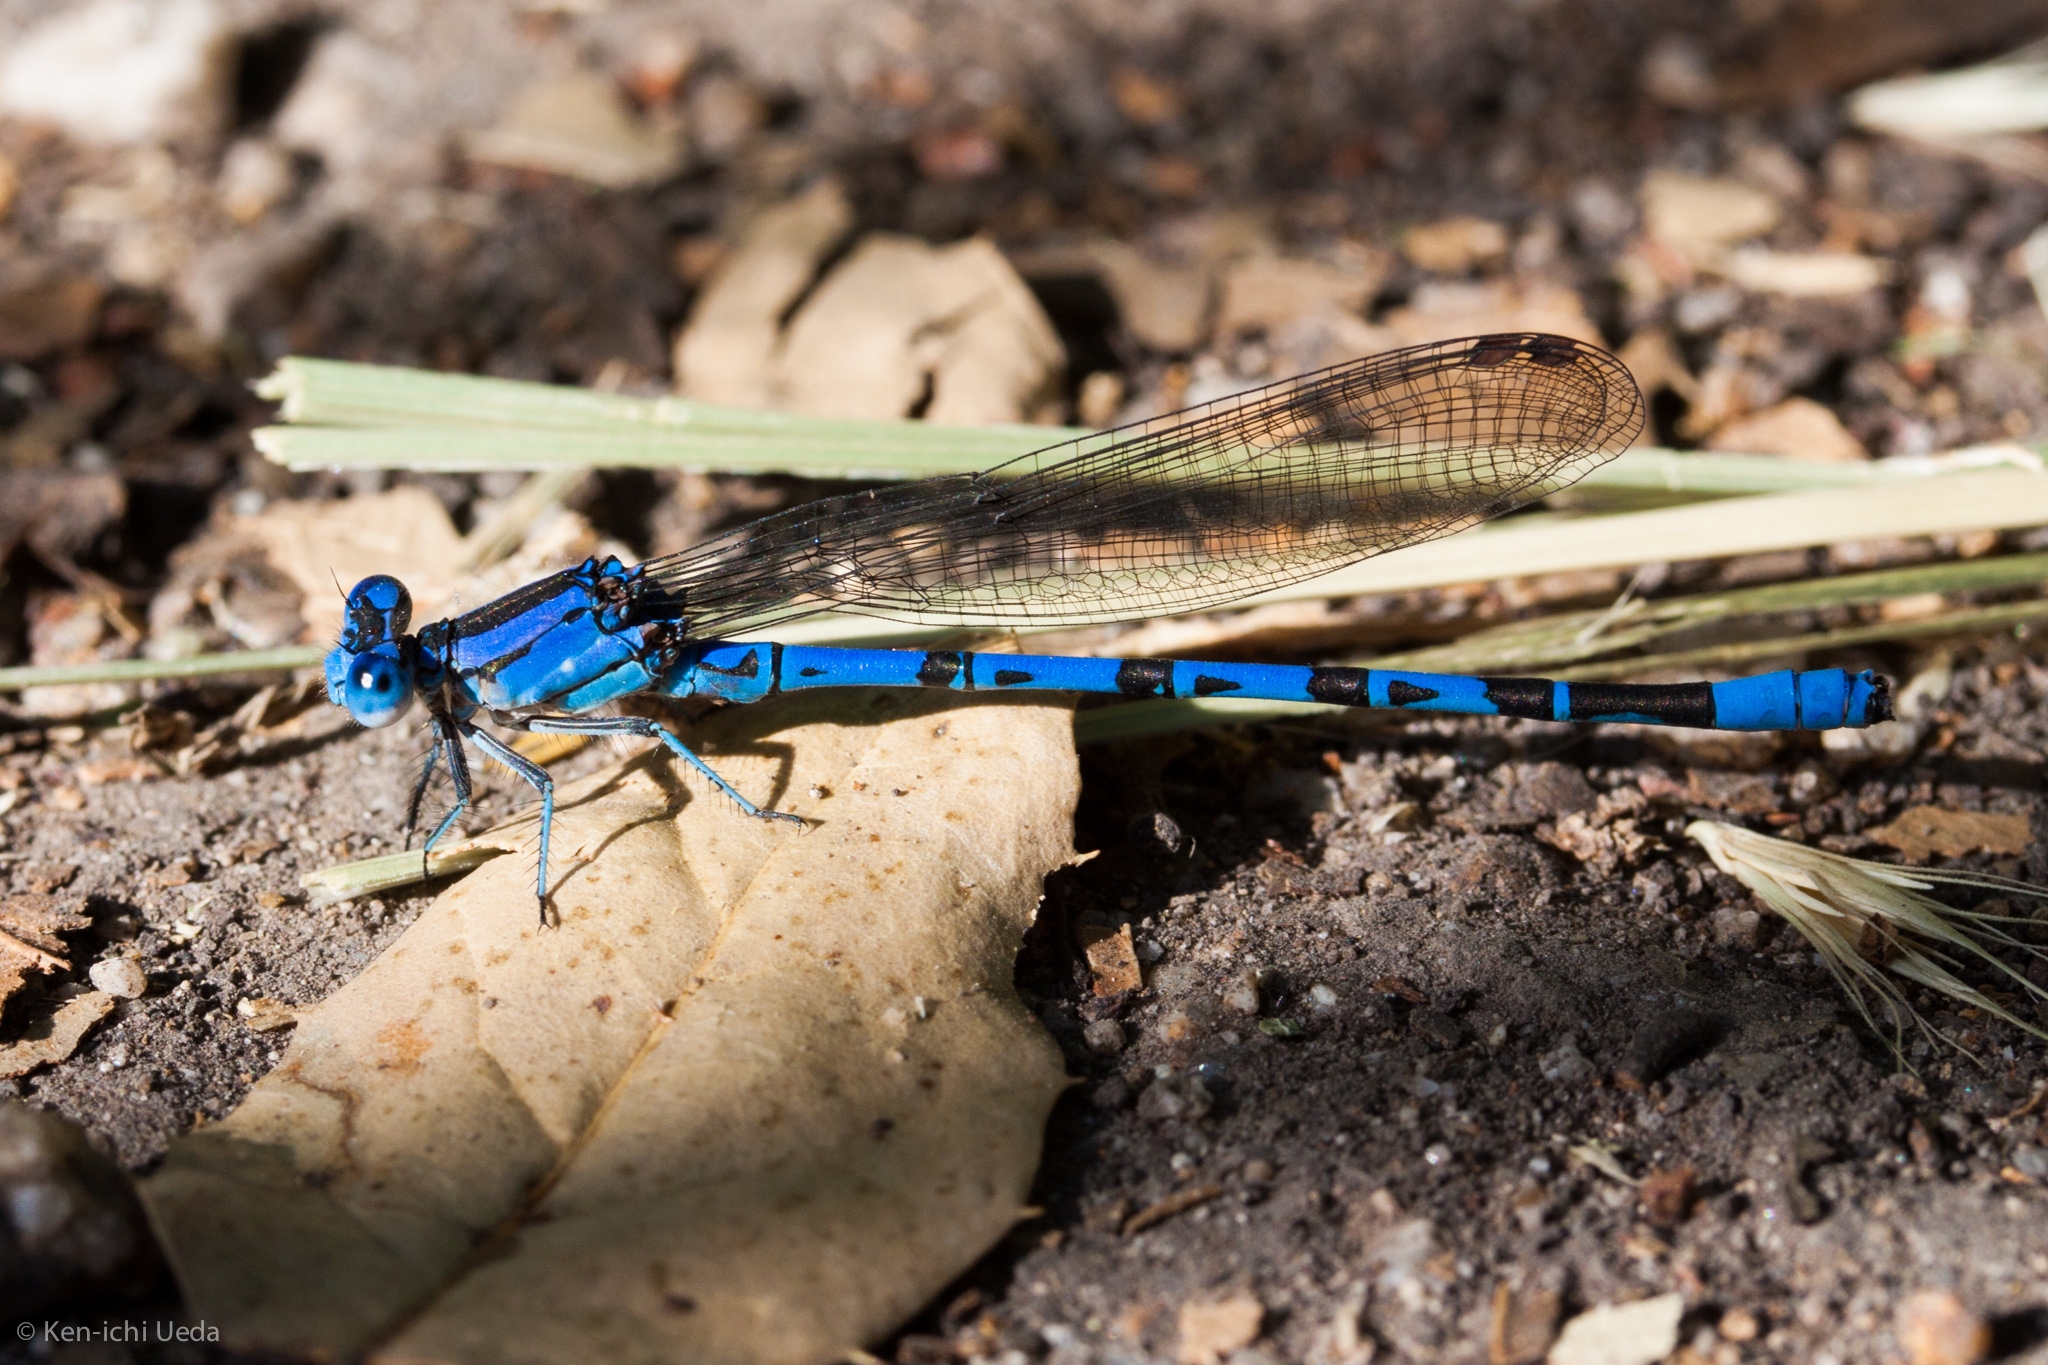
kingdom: Animalia
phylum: Arthropoda
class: Insecta
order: Odonata
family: Coenagrionidae
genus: Argia
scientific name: Argia vivida
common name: Vivid dancer
